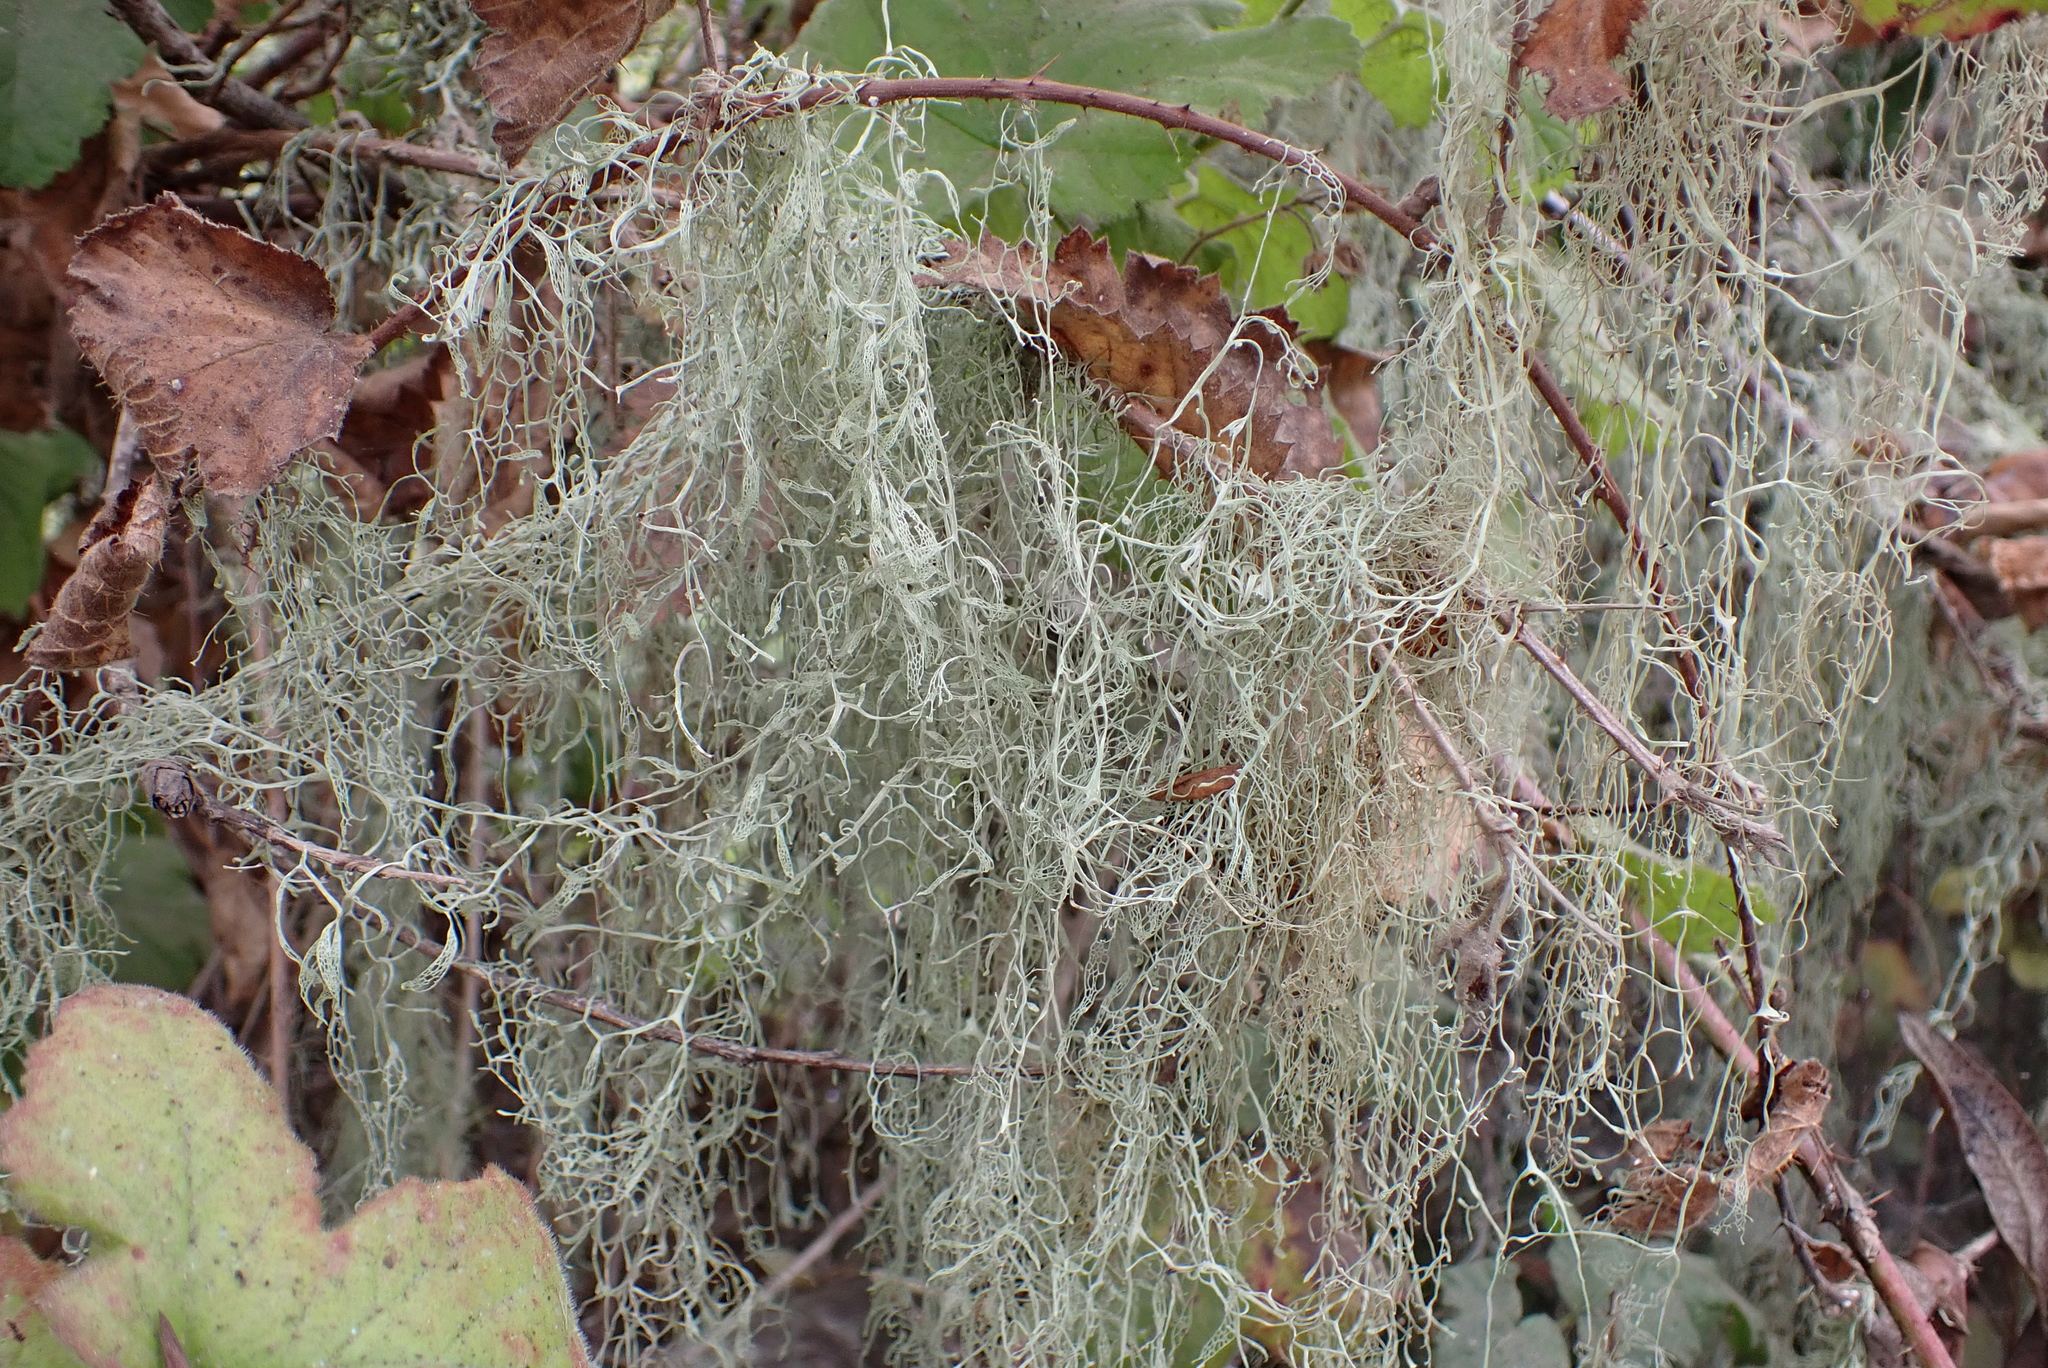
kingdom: Fungi
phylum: Ascomycota
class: Lecanoromycetes
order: Lecanorales
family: Ramalinaceae
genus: Ramalina
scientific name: Ramalina menziesii
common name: Lace lichen
